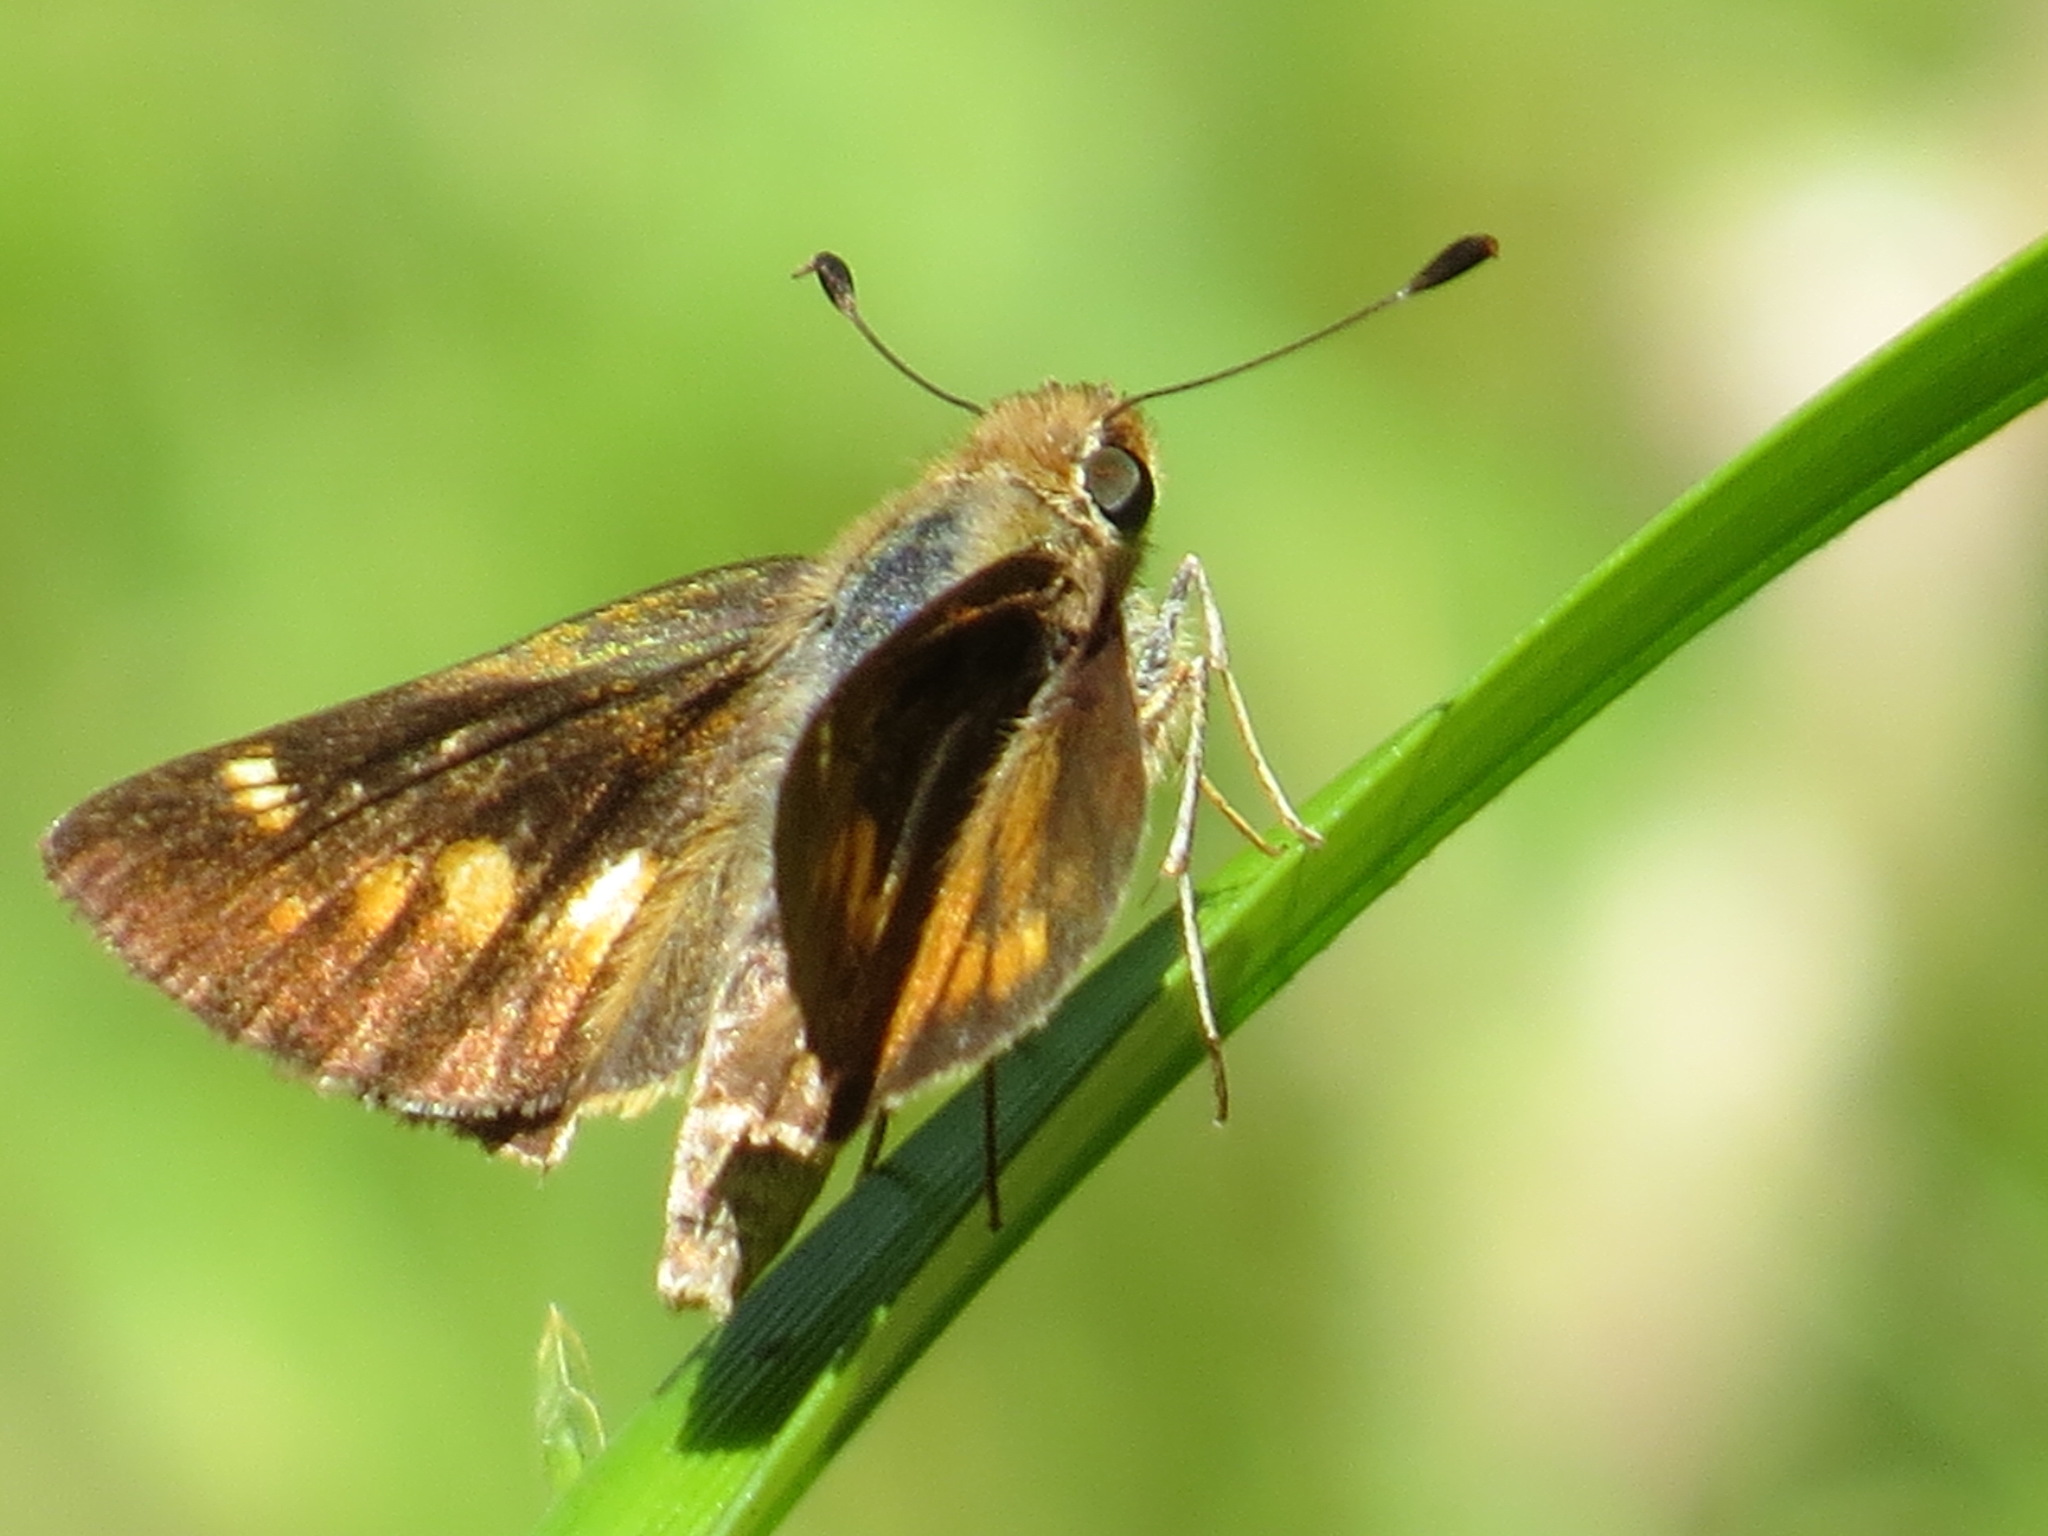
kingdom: Animalia
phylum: Arthropoda
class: Insecta
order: Lepidoptera
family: Hesperiidae
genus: Lon
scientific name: Lon melane
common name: Umber skipper
